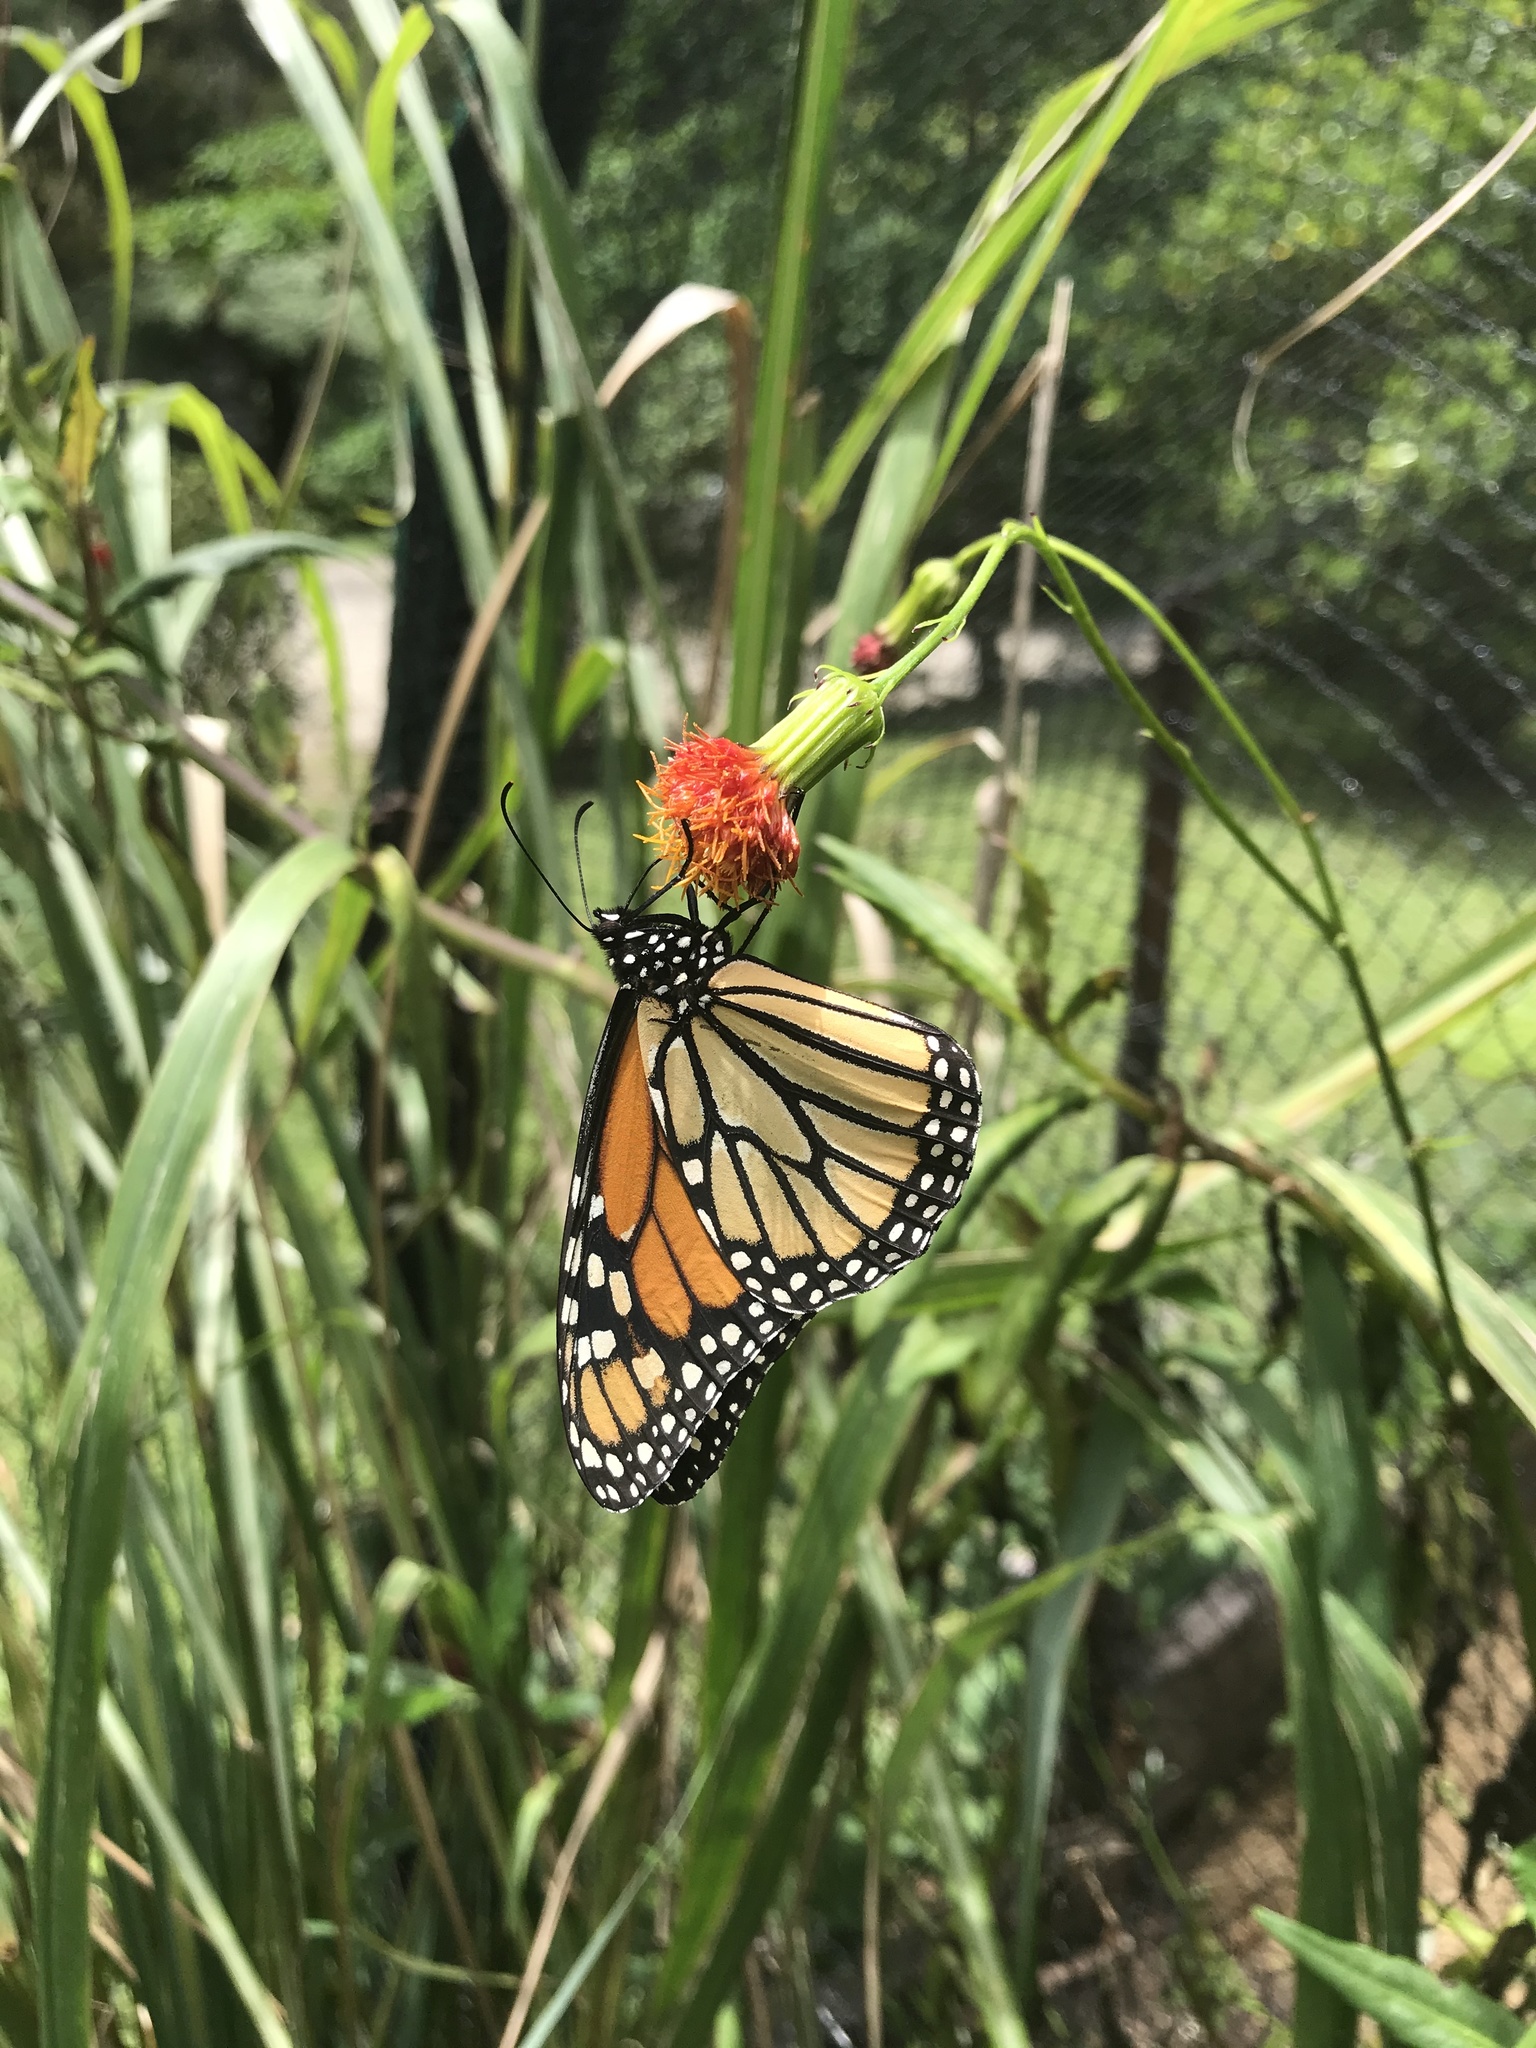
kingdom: Animalia
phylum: Arthropoda
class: Insecta
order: Lepidoptera
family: Nymphalidae
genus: Danaus
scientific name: Danaus plexippus
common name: Monarch
